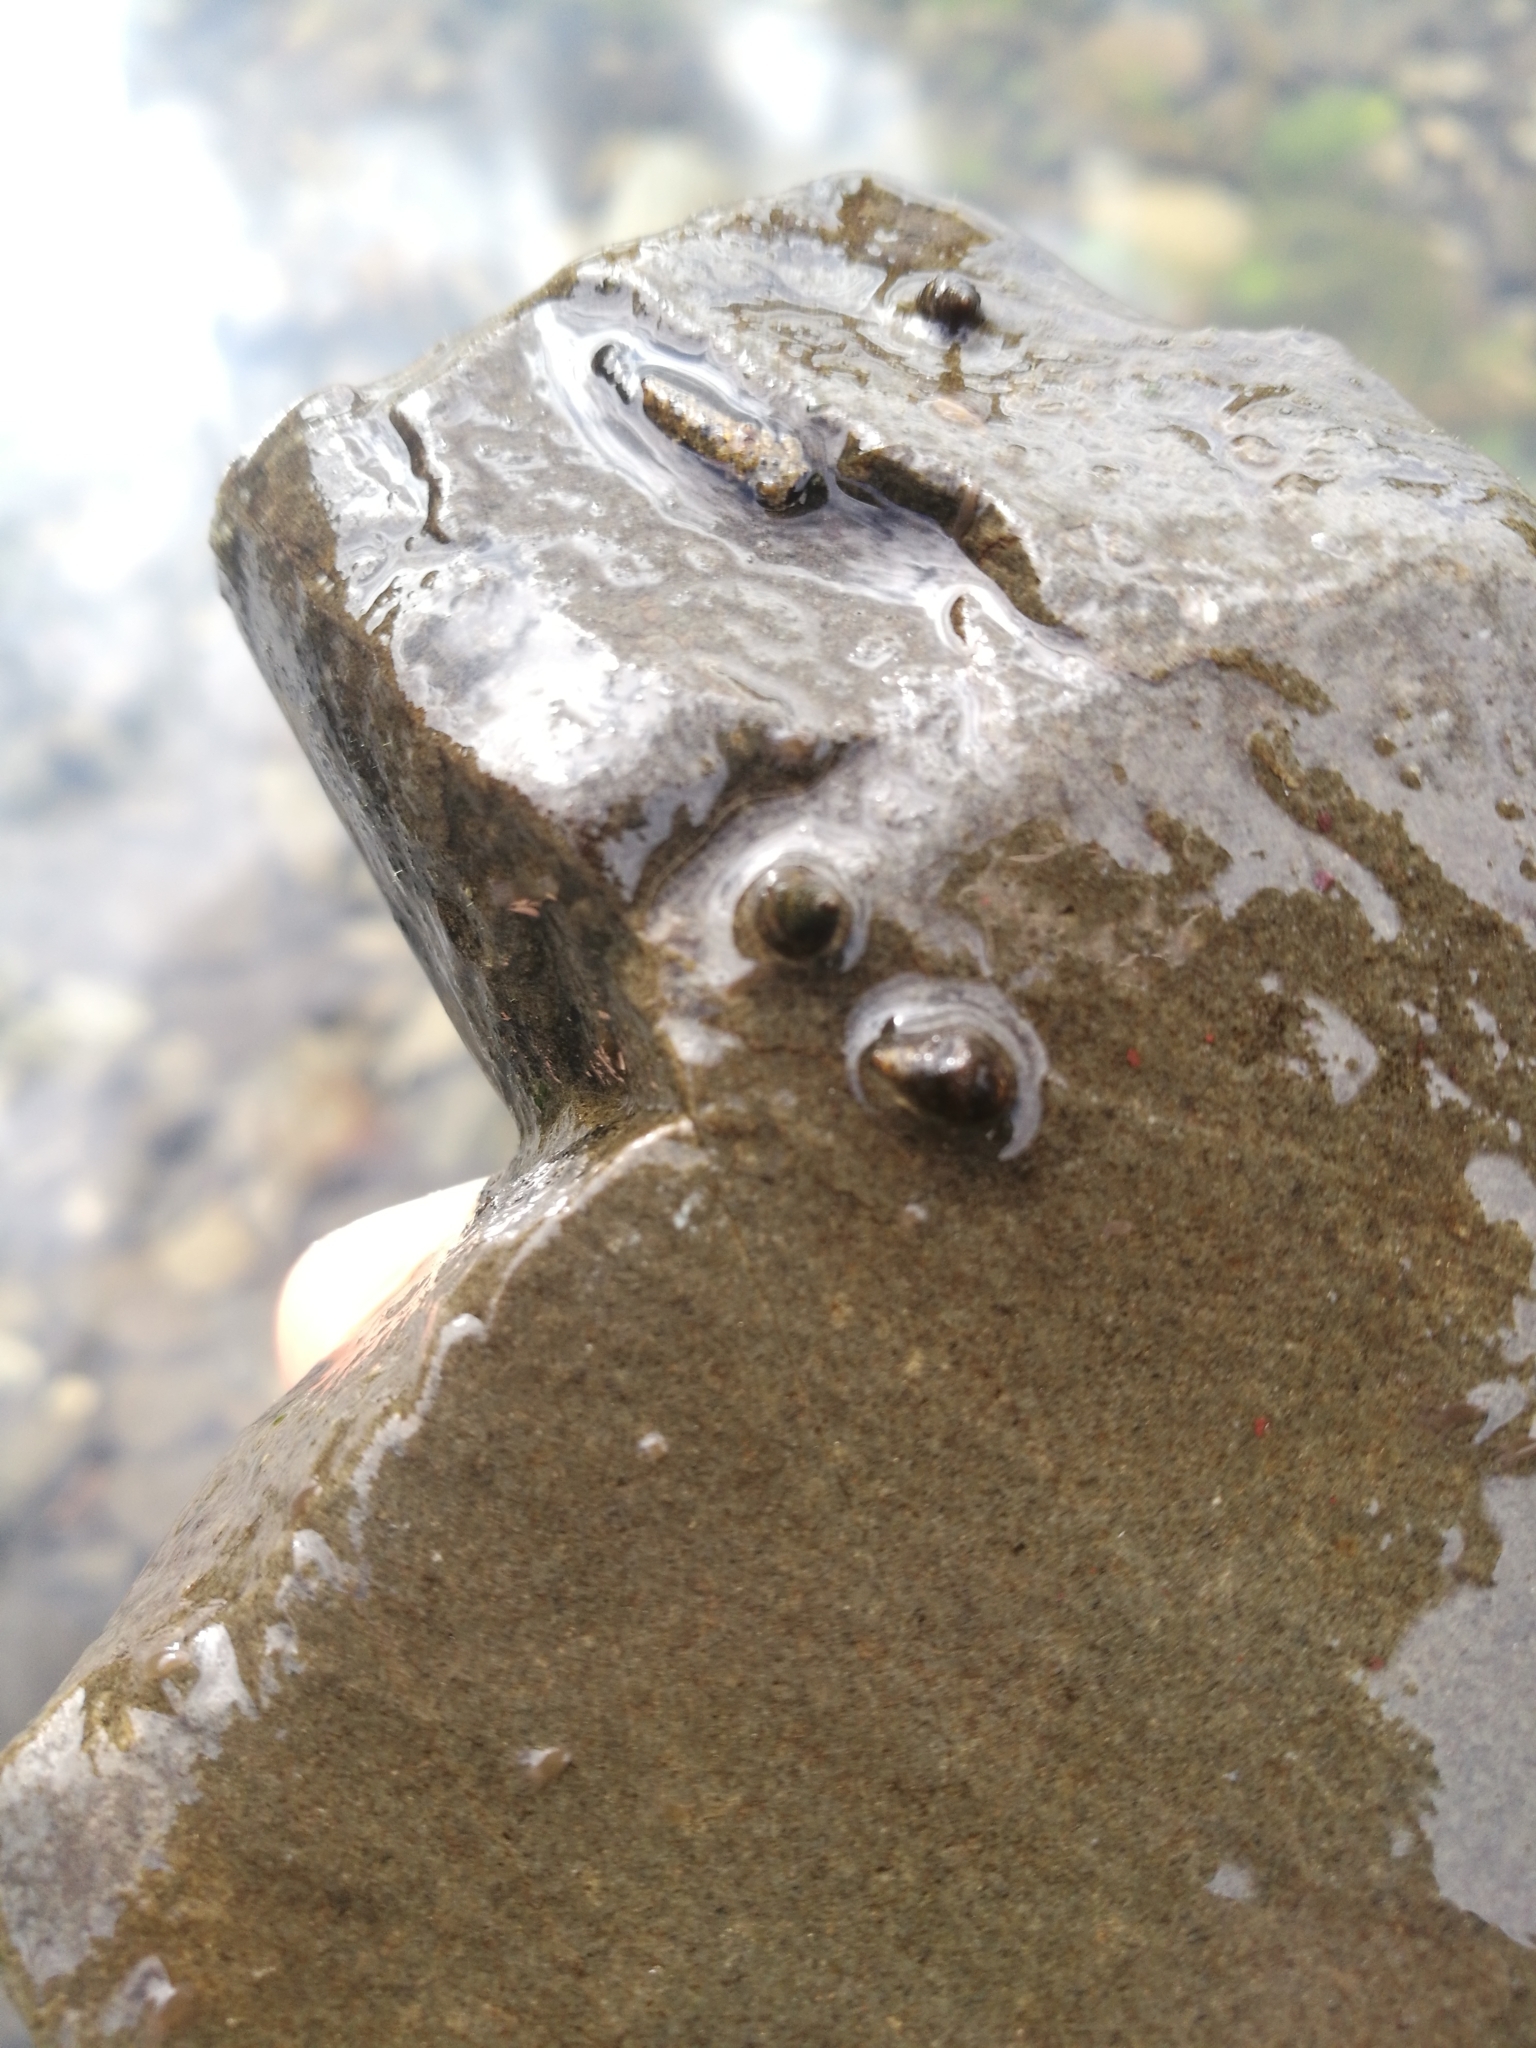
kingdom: Animalia
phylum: Mollusca
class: Gastropoda
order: Littorinimorpha
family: Tateidae
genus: Potamopyrgus
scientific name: Potamopyrgus antipodarum
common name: Jenkins' spire snail
